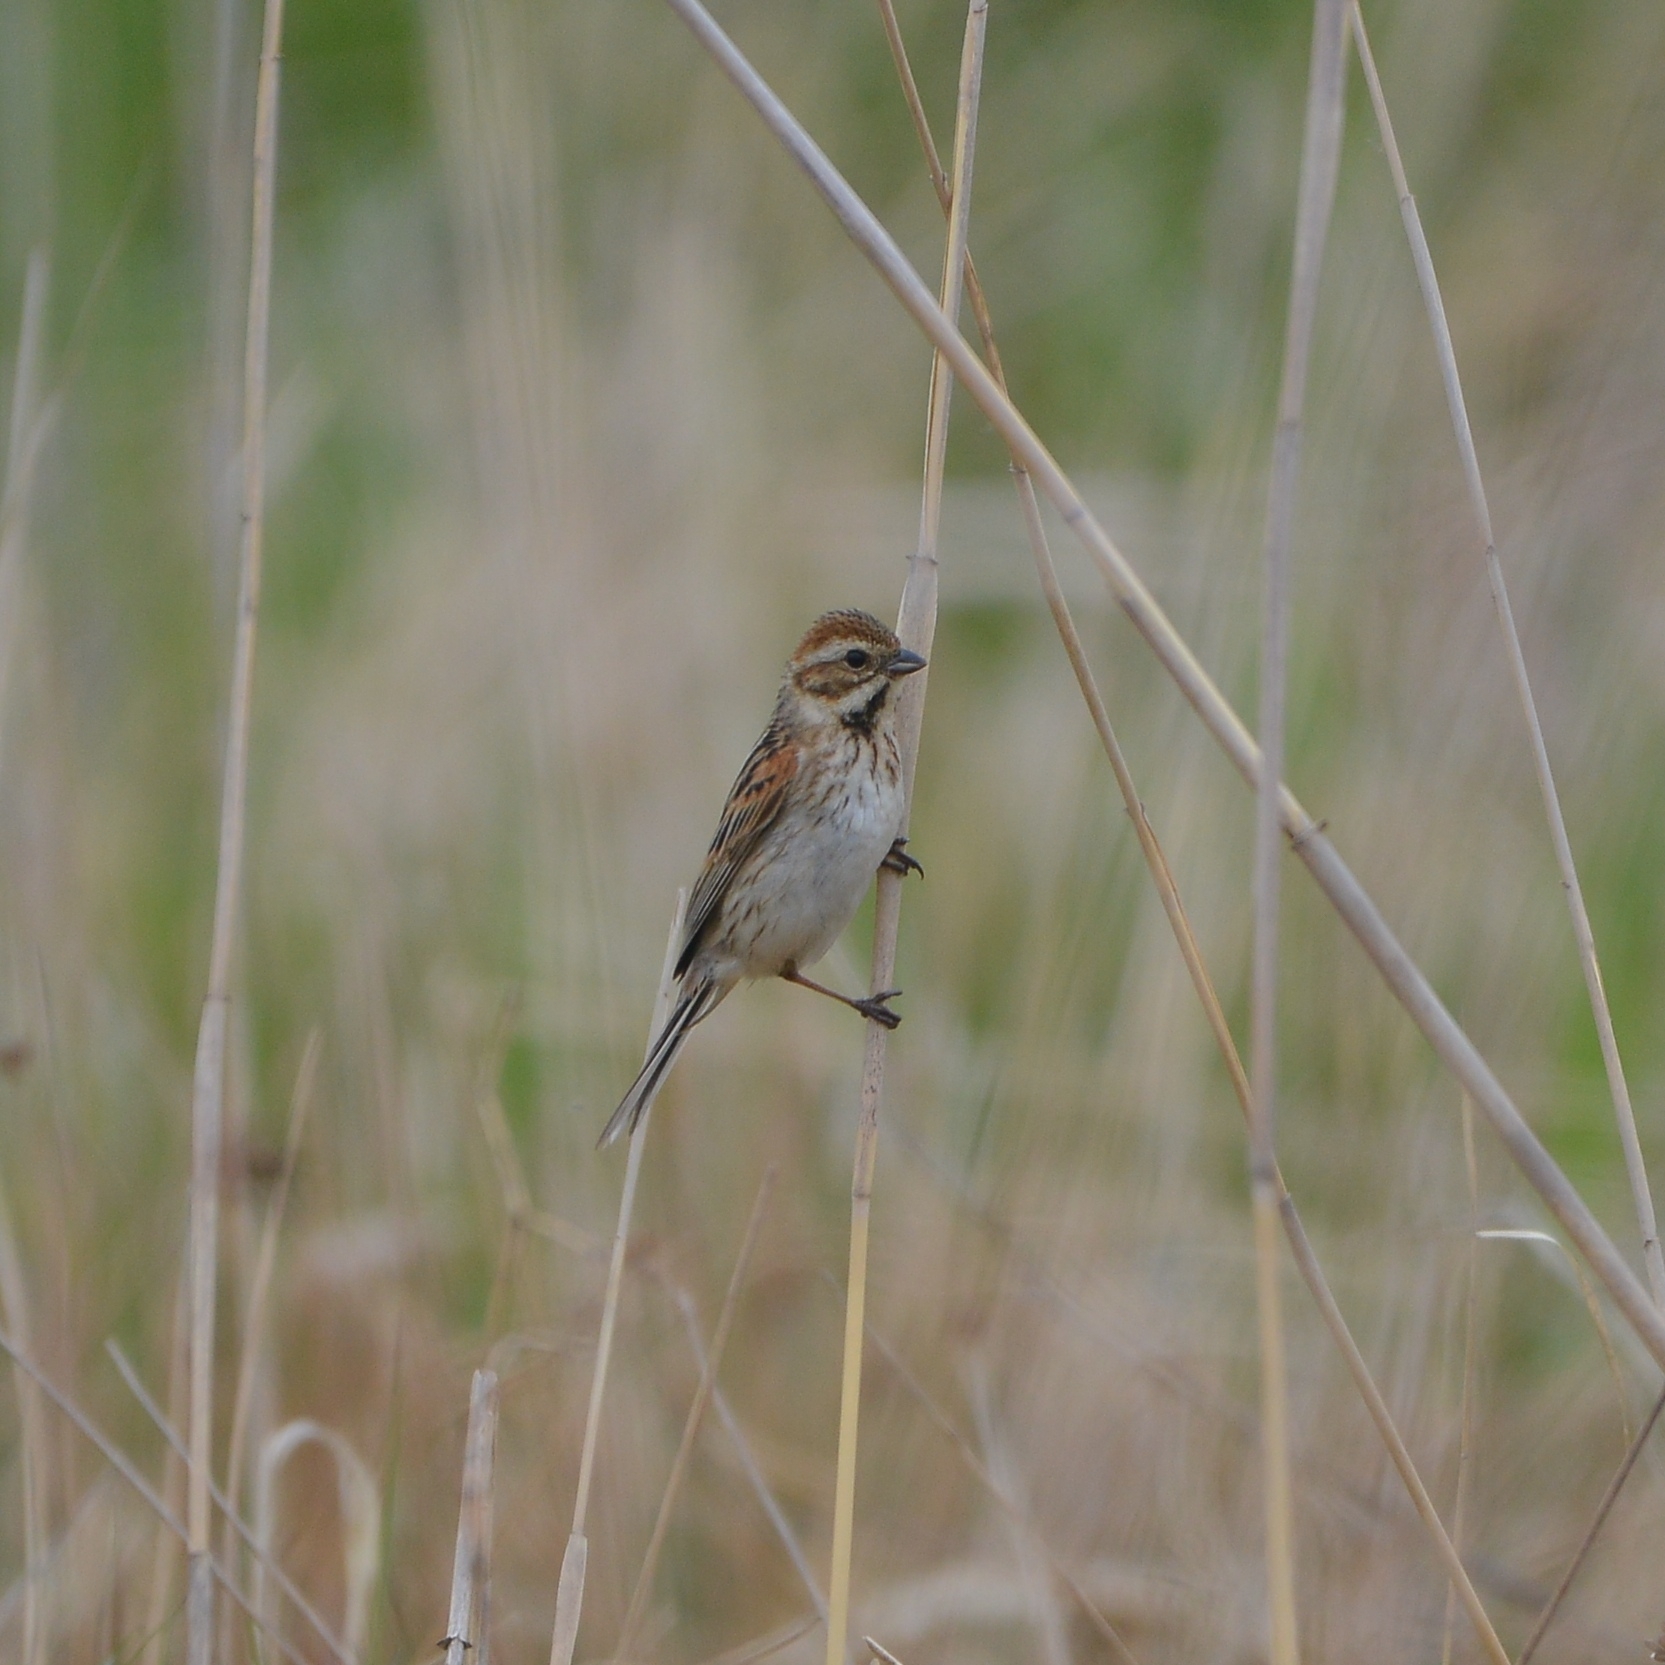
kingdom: Animalia
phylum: Chordata
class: Aves
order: Passeriformes
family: Emberizidae
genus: Emberiza
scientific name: Emberiza schoeniclus
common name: Reed bunting
